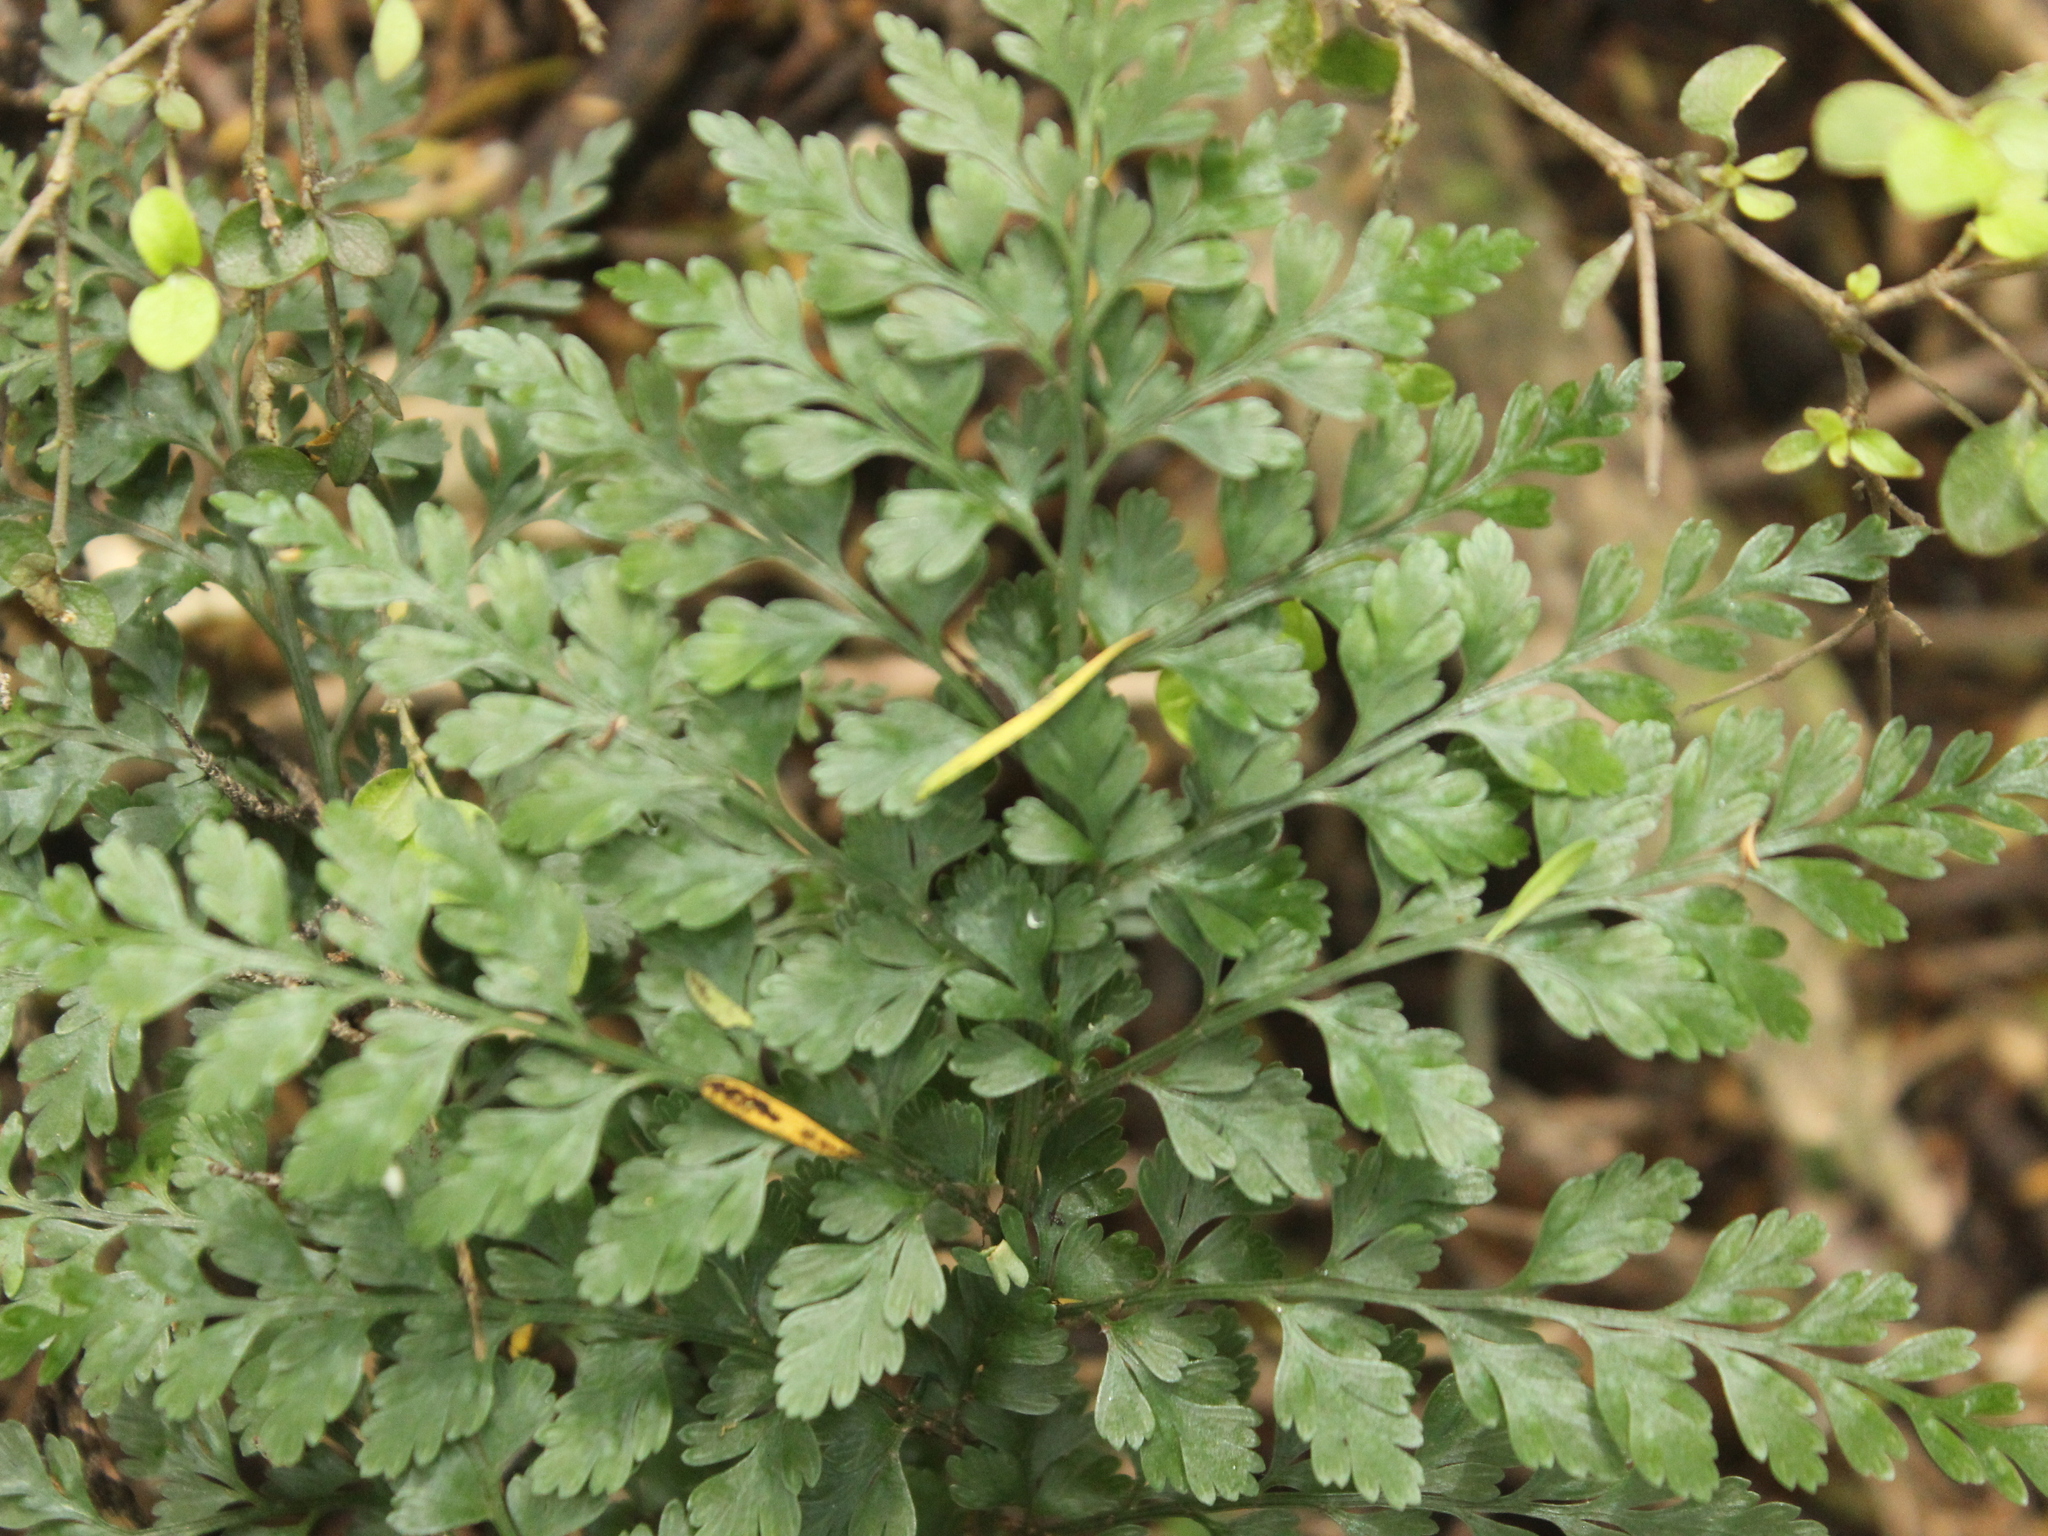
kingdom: Plantae
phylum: Tracheophyta
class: Polypodiopsida
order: Polypodiales
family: Aspleniaceae
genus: Asplenium
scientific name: Asplenium hookerianum
